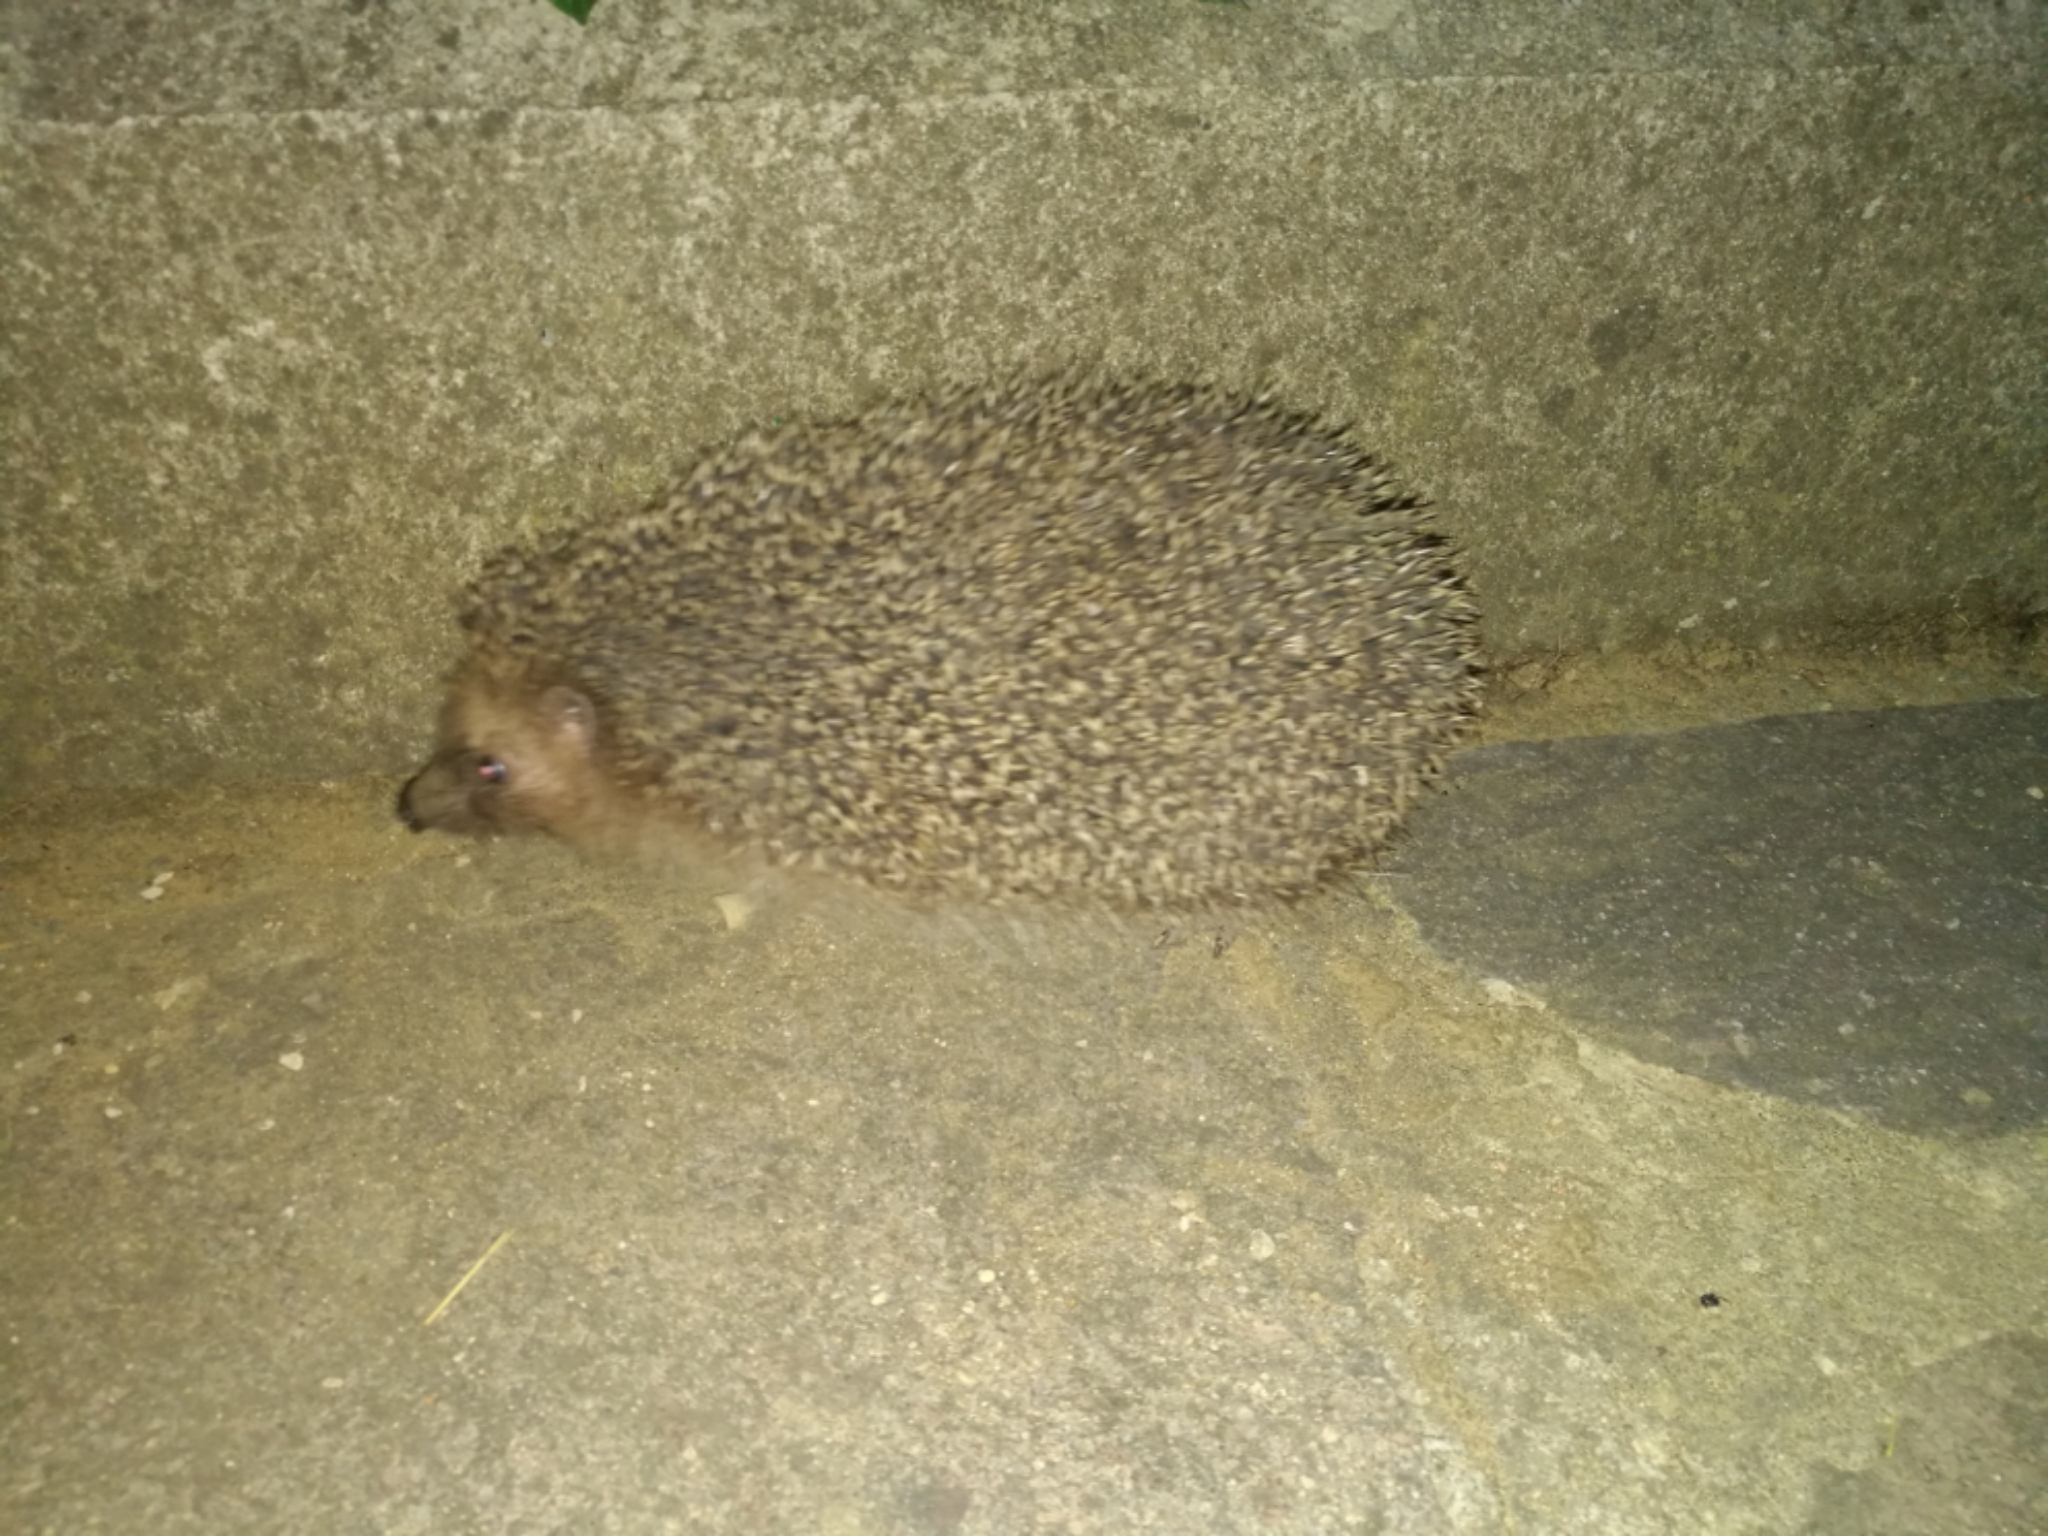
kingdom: Animalia
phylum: Chordata
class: Mammalia
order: Erinaceomorpha
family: Erinaceidae
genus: Erinaceus
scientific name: Erinaceus europaeus
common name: West european hedgehog
